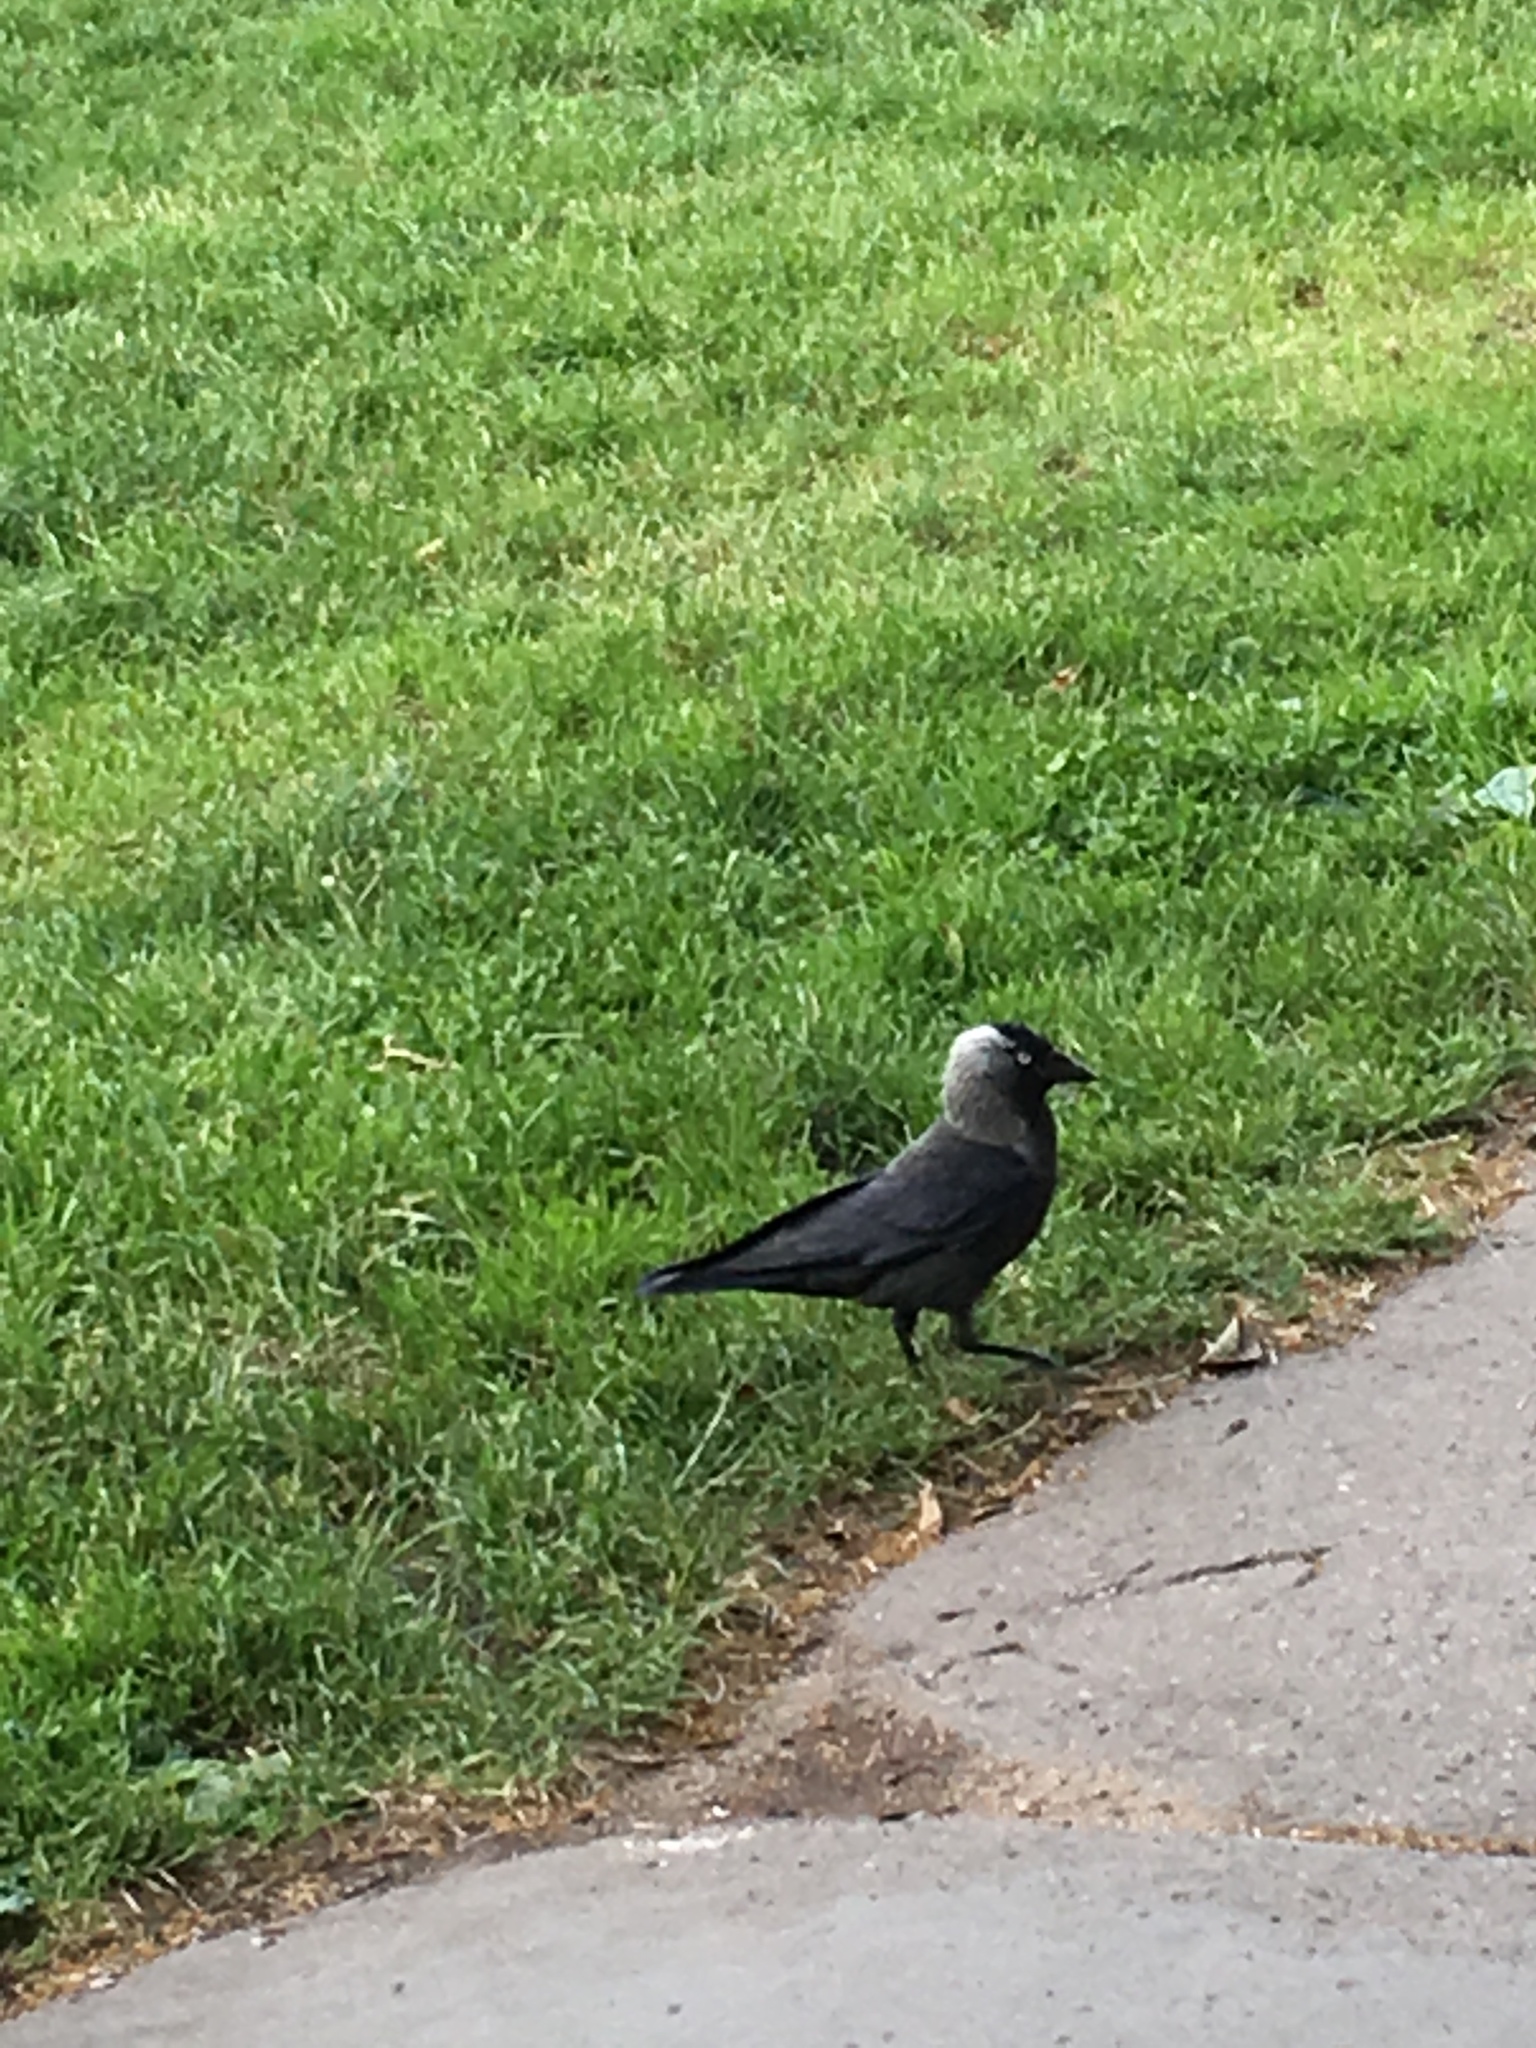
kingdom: Animalia
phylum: Chordata
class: Aves
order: Passeriformes
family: Corvidae
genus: Coloeus
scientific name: Coloeus monedula
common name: Western jackdaw
